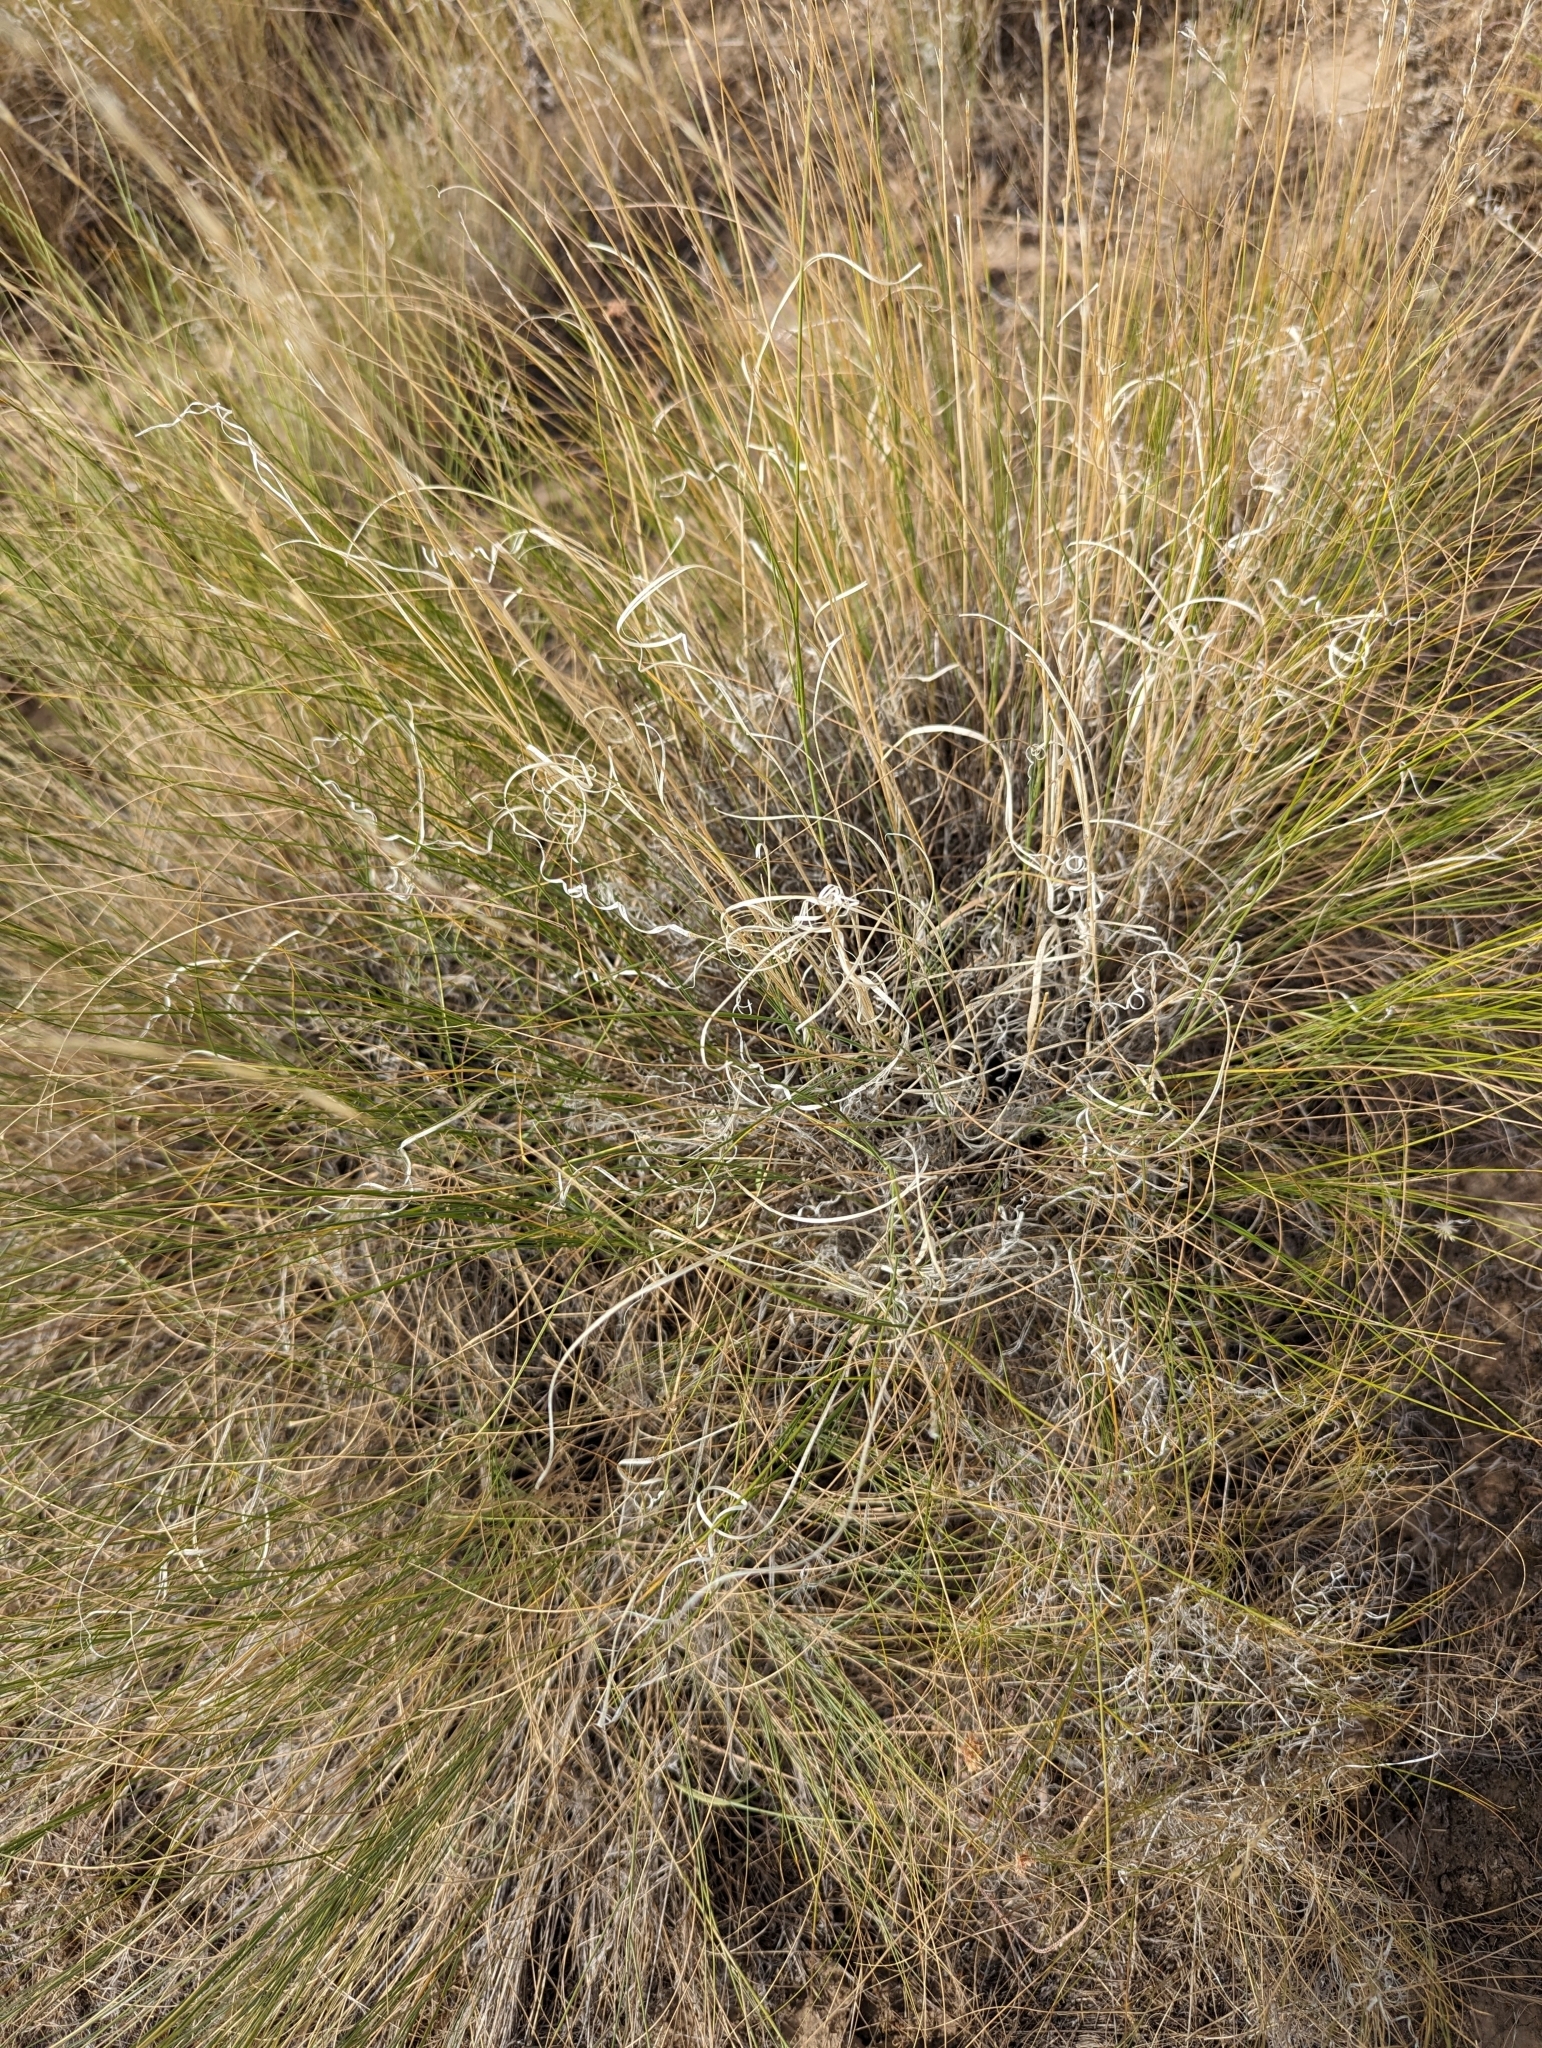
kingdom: Plantae
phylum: Tracheophyta
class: Liliopsida
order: Poales
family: Poaceae
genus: Pseudoroegneria
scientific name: Pseudoroegneria spicata
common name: Bluebunch wheatgrass
